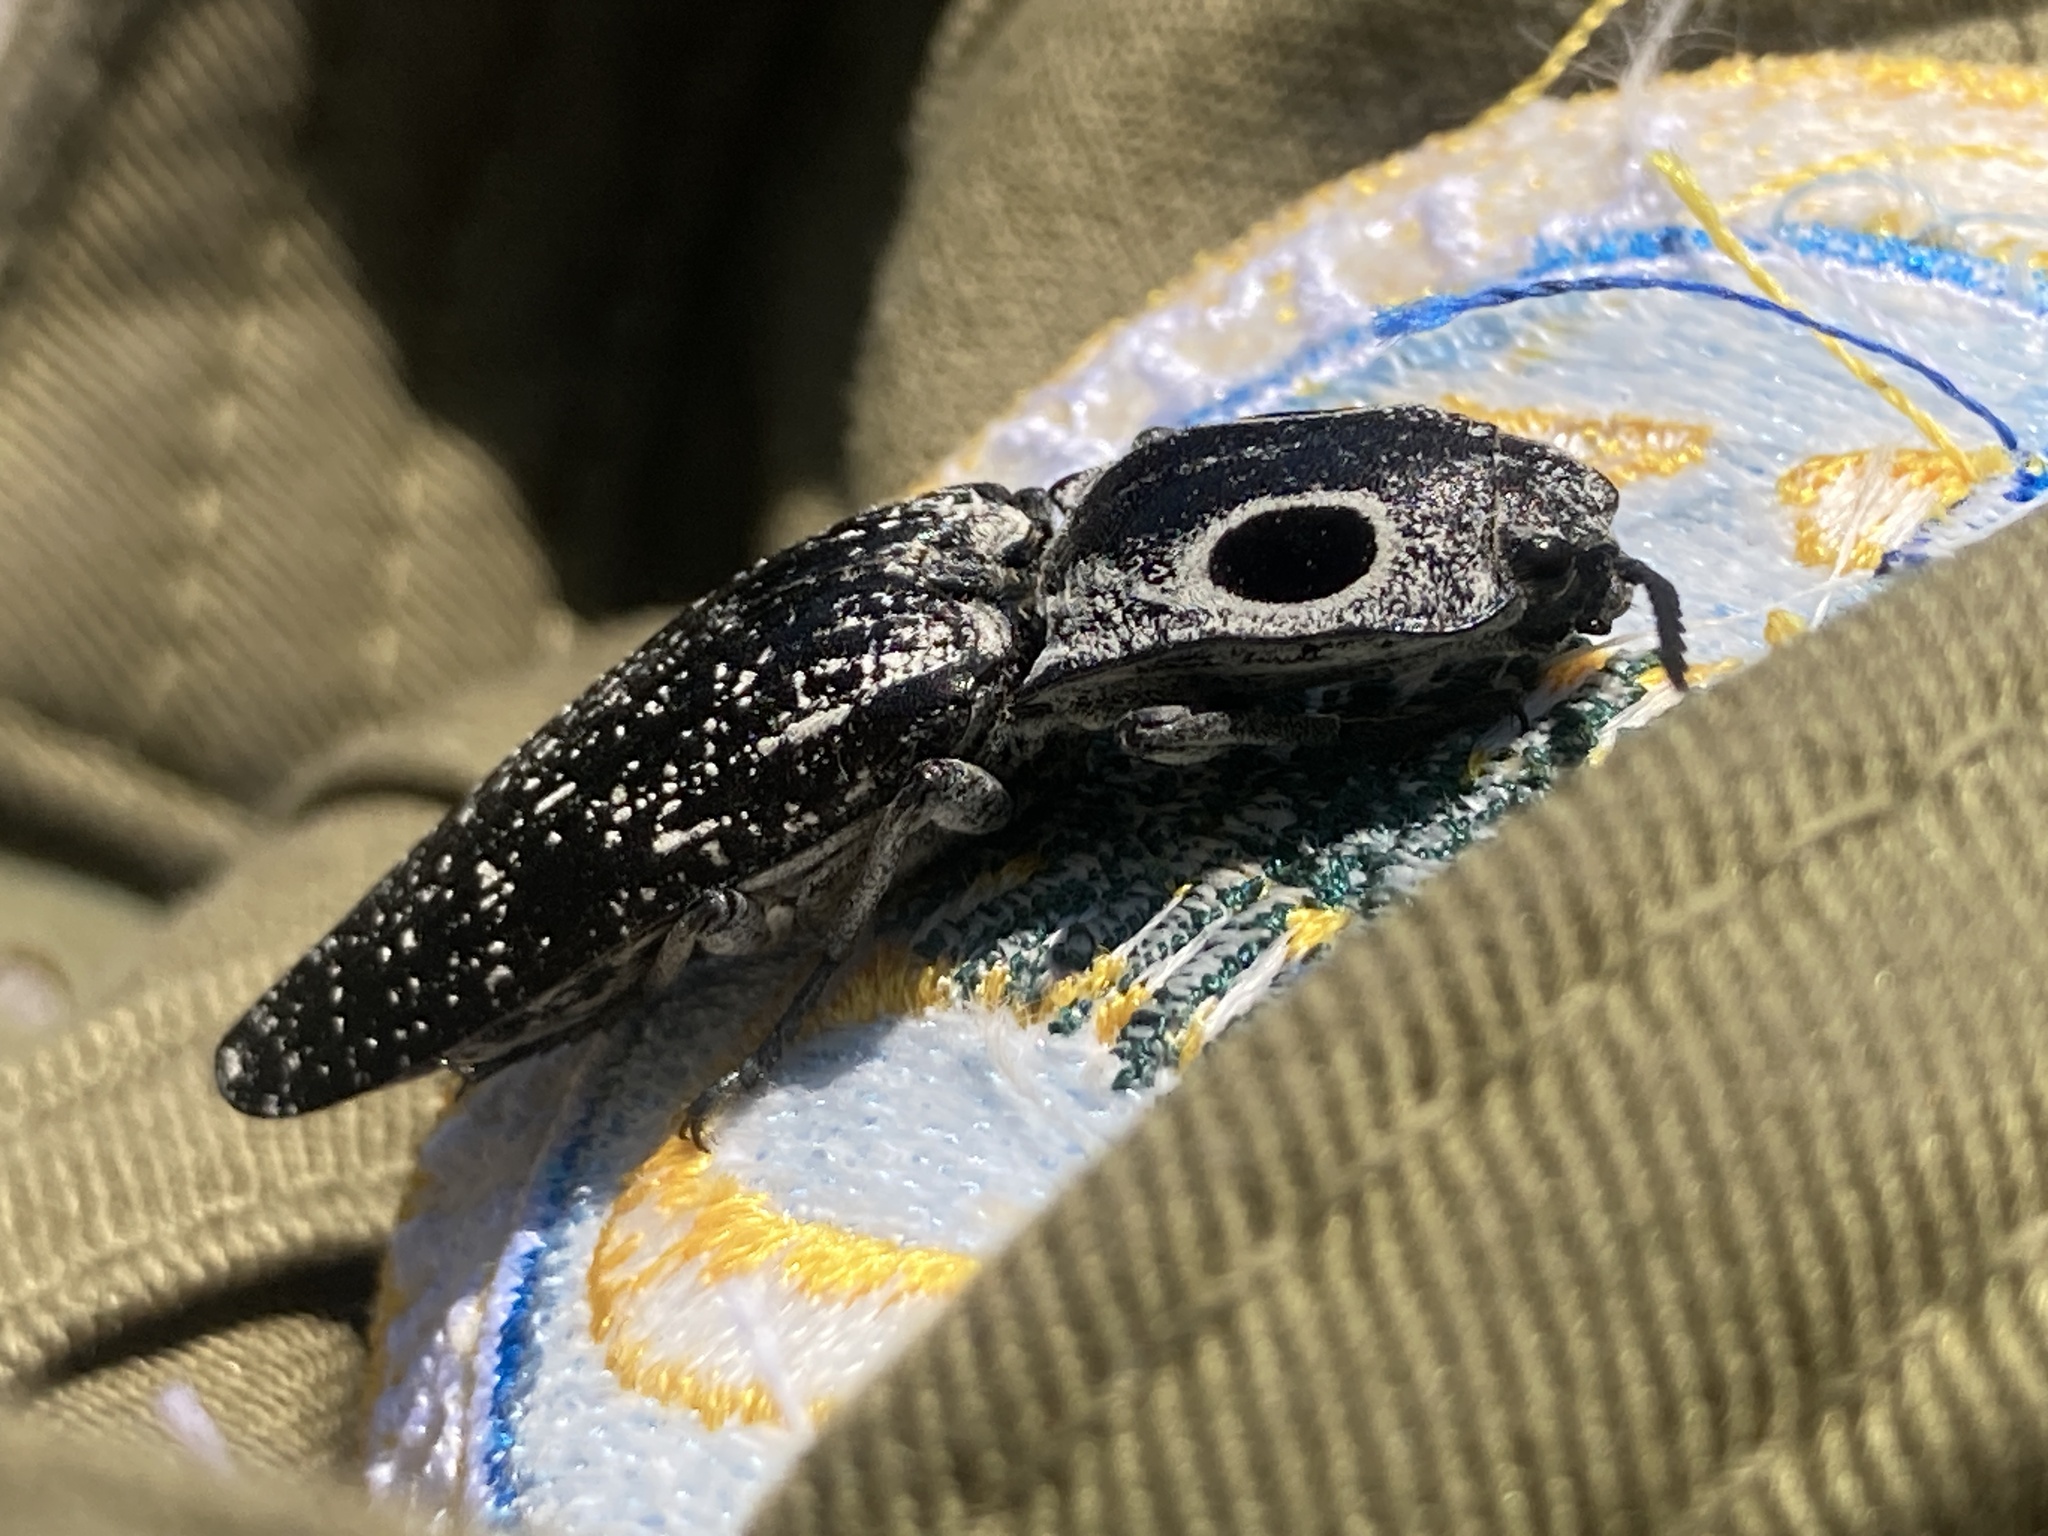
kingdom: Animalia
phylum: Arthropoda
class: Insecta
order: Coleoptera
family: Elateridae
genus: Alaus
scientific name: Alaus oculatus
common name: Eastern eyed click beetle
